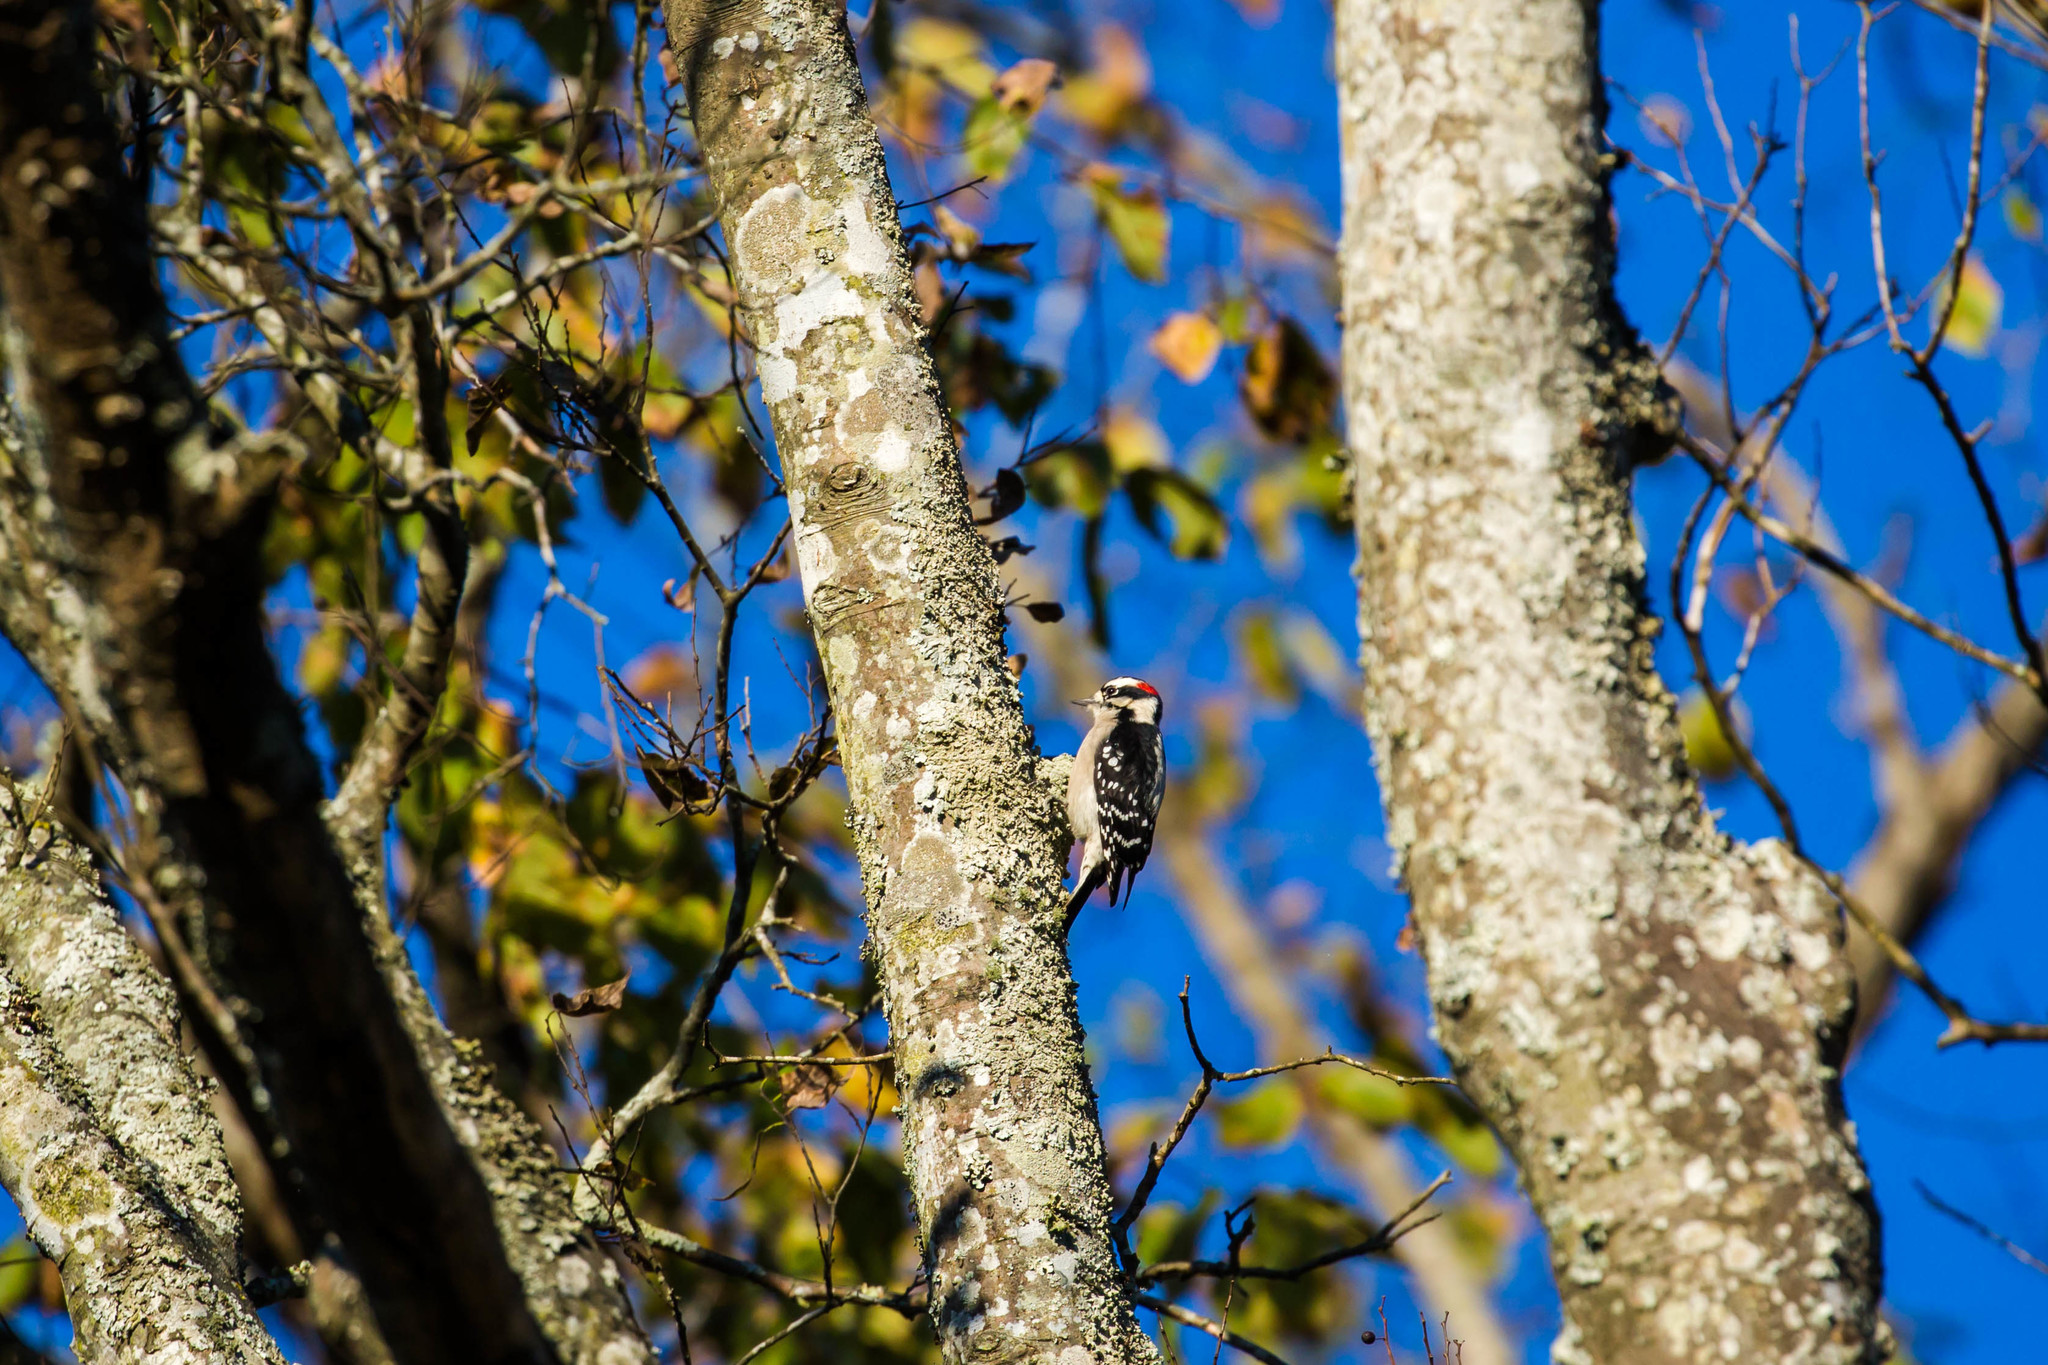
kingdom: Animalia
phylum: Chordata
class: Aves
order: Piciformes
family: Picidae
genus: Dryobates
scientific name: Dryobates pubescens
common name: Downy woodpecker
